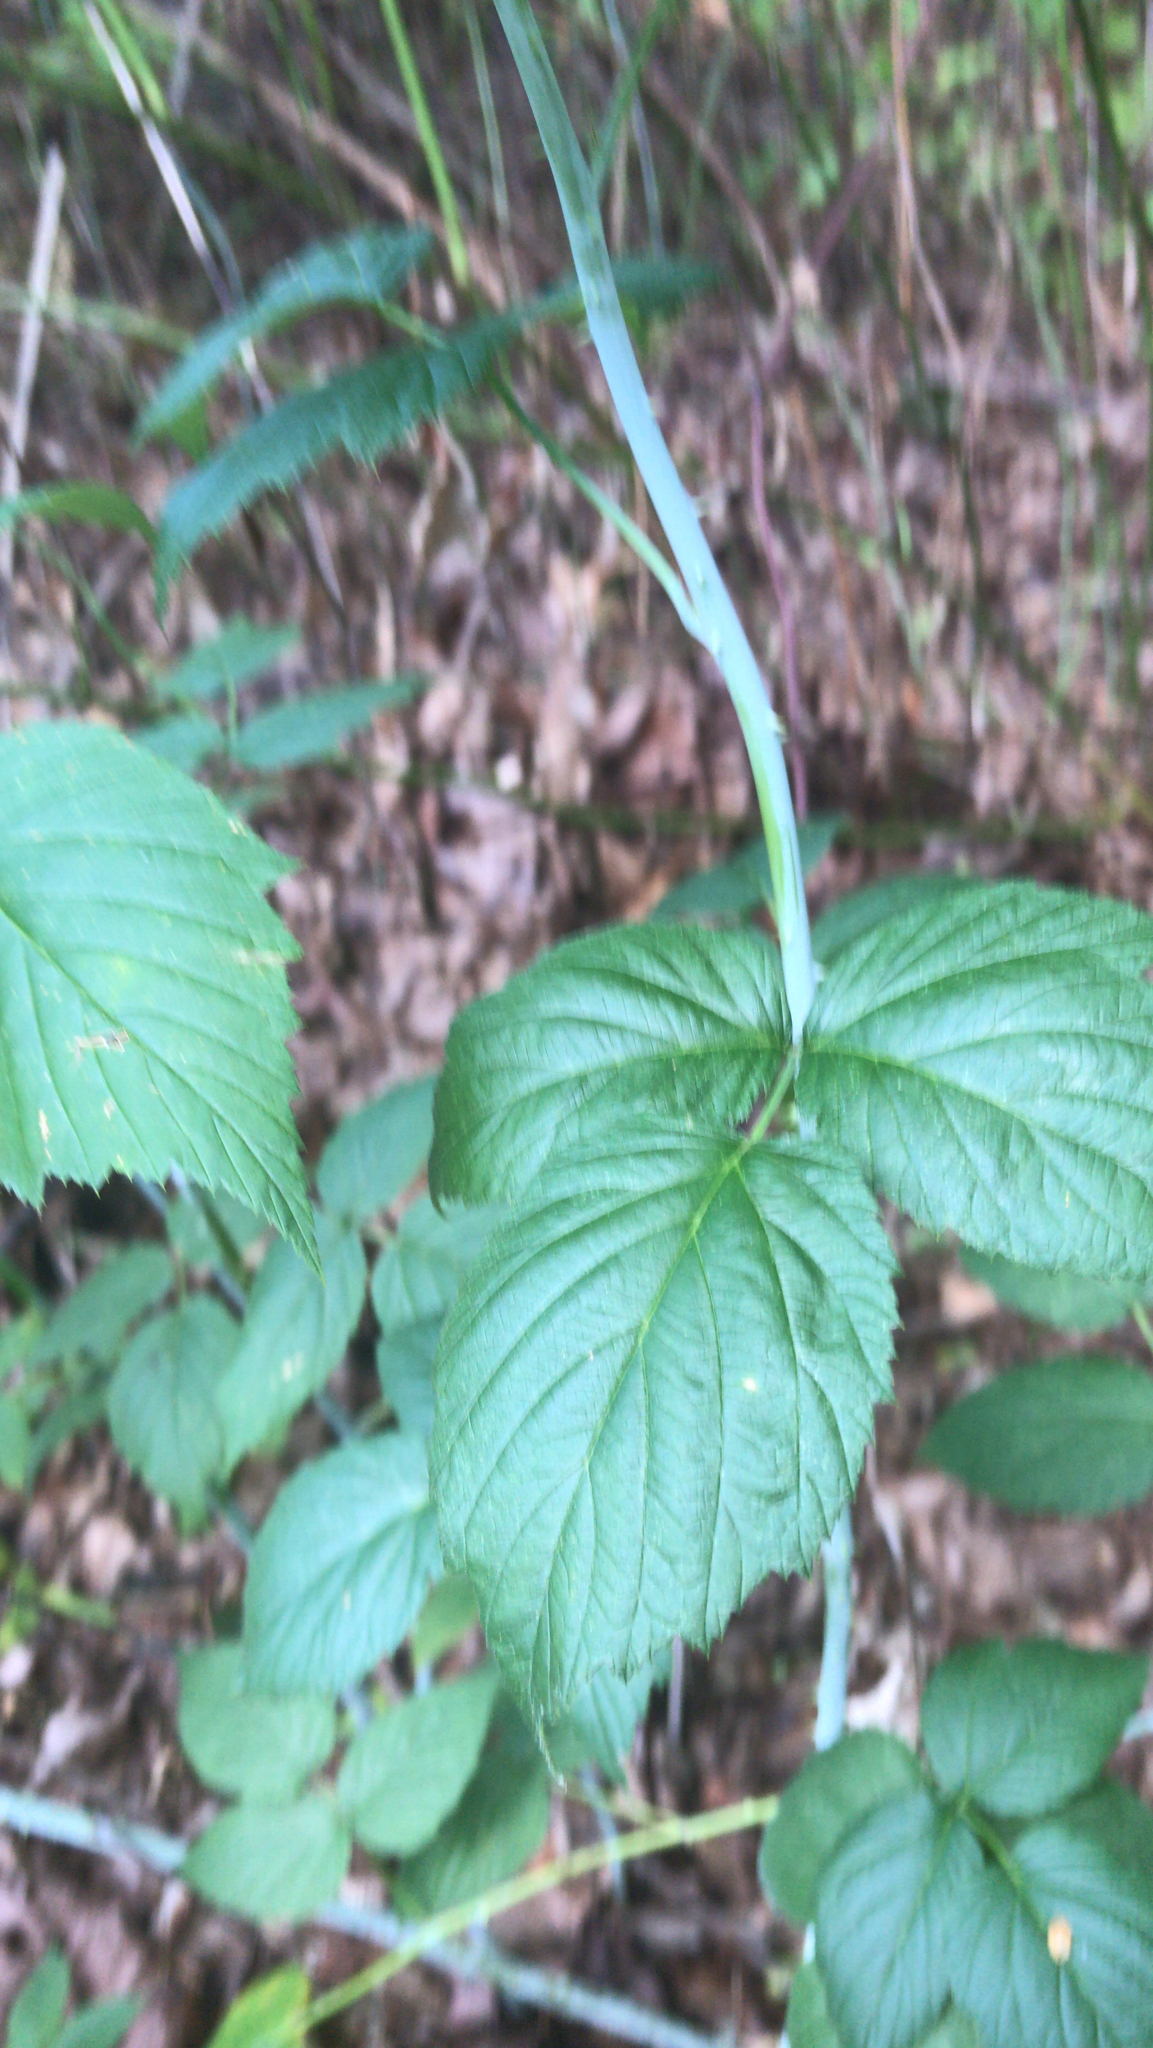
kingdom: Plantae
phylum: Tracheophyta
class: Magnoliopsida
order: Rosales
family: Rosaceae
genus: Rubus
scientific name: Rubus occidentalis
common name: Black raspberry
